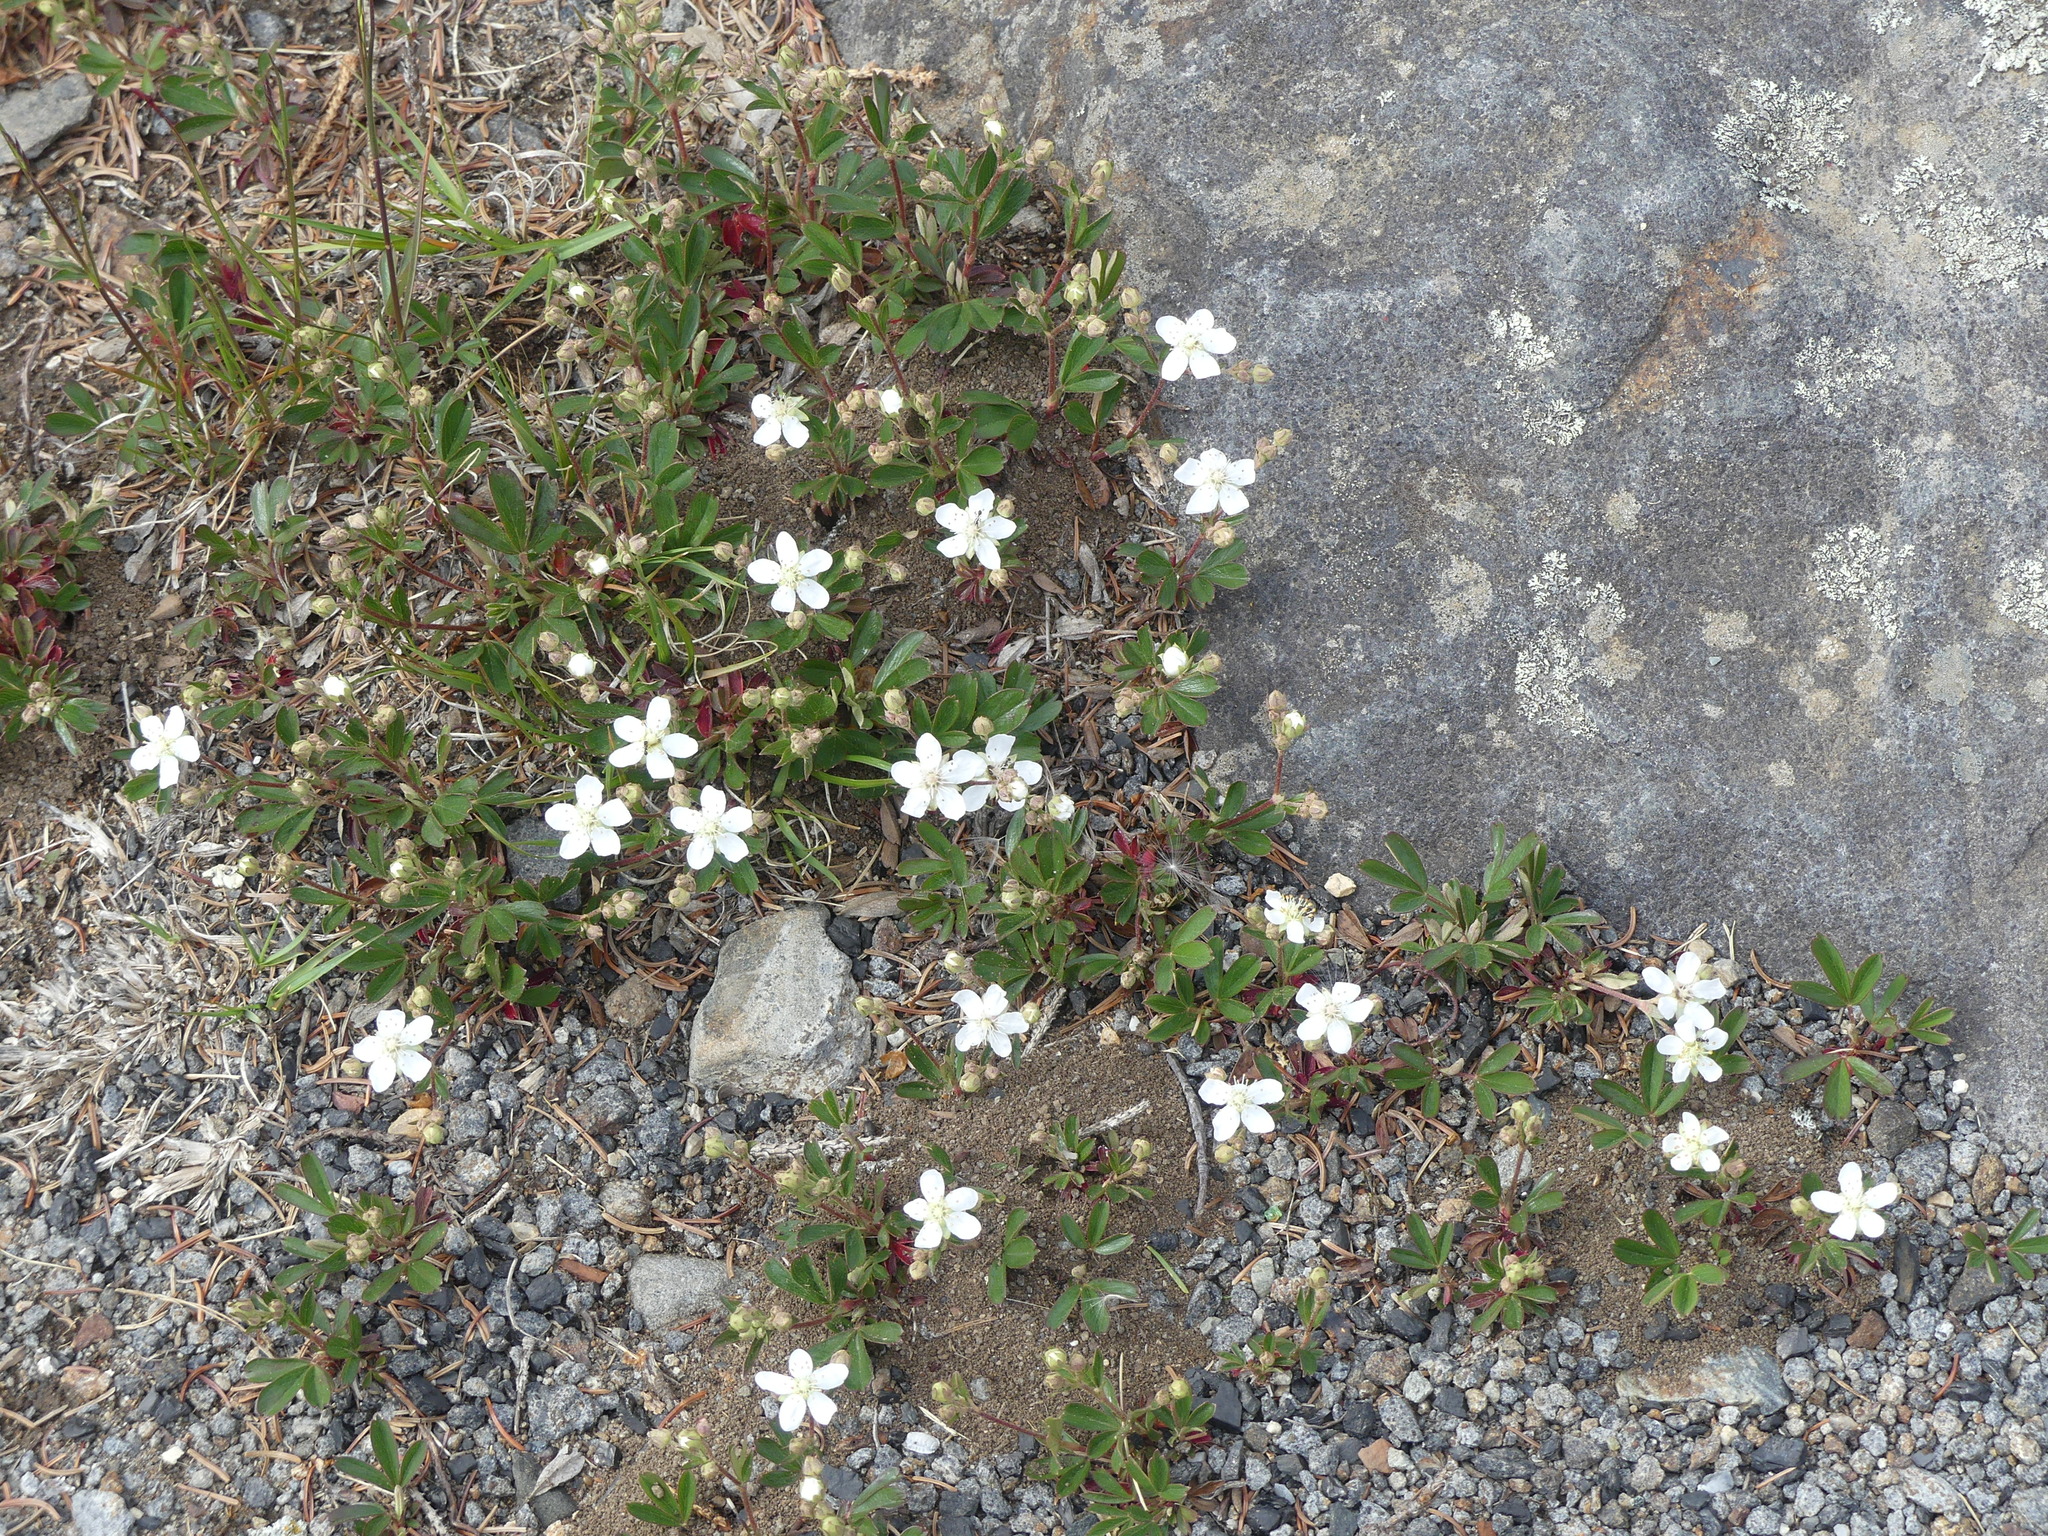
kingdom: Plantae
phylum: Tracheophyta
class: Magnoliopsida
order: Rosales
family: Rosaceae
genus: Sibbaldia
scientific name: Sibbaldia tridentata
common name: Three-toothed cinquefoil
